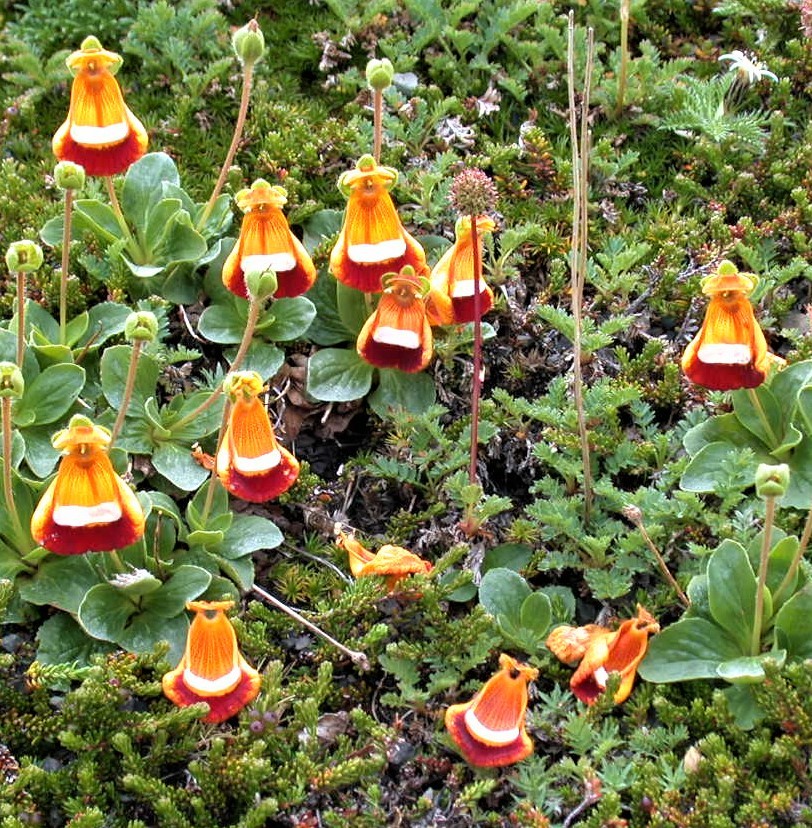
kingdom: Plantae
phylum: Tracheophyta
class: Magnoliopsida
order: Lamiales
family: Calceolariaceae
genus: Calceolaria
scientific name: Calceolaria uniflora
